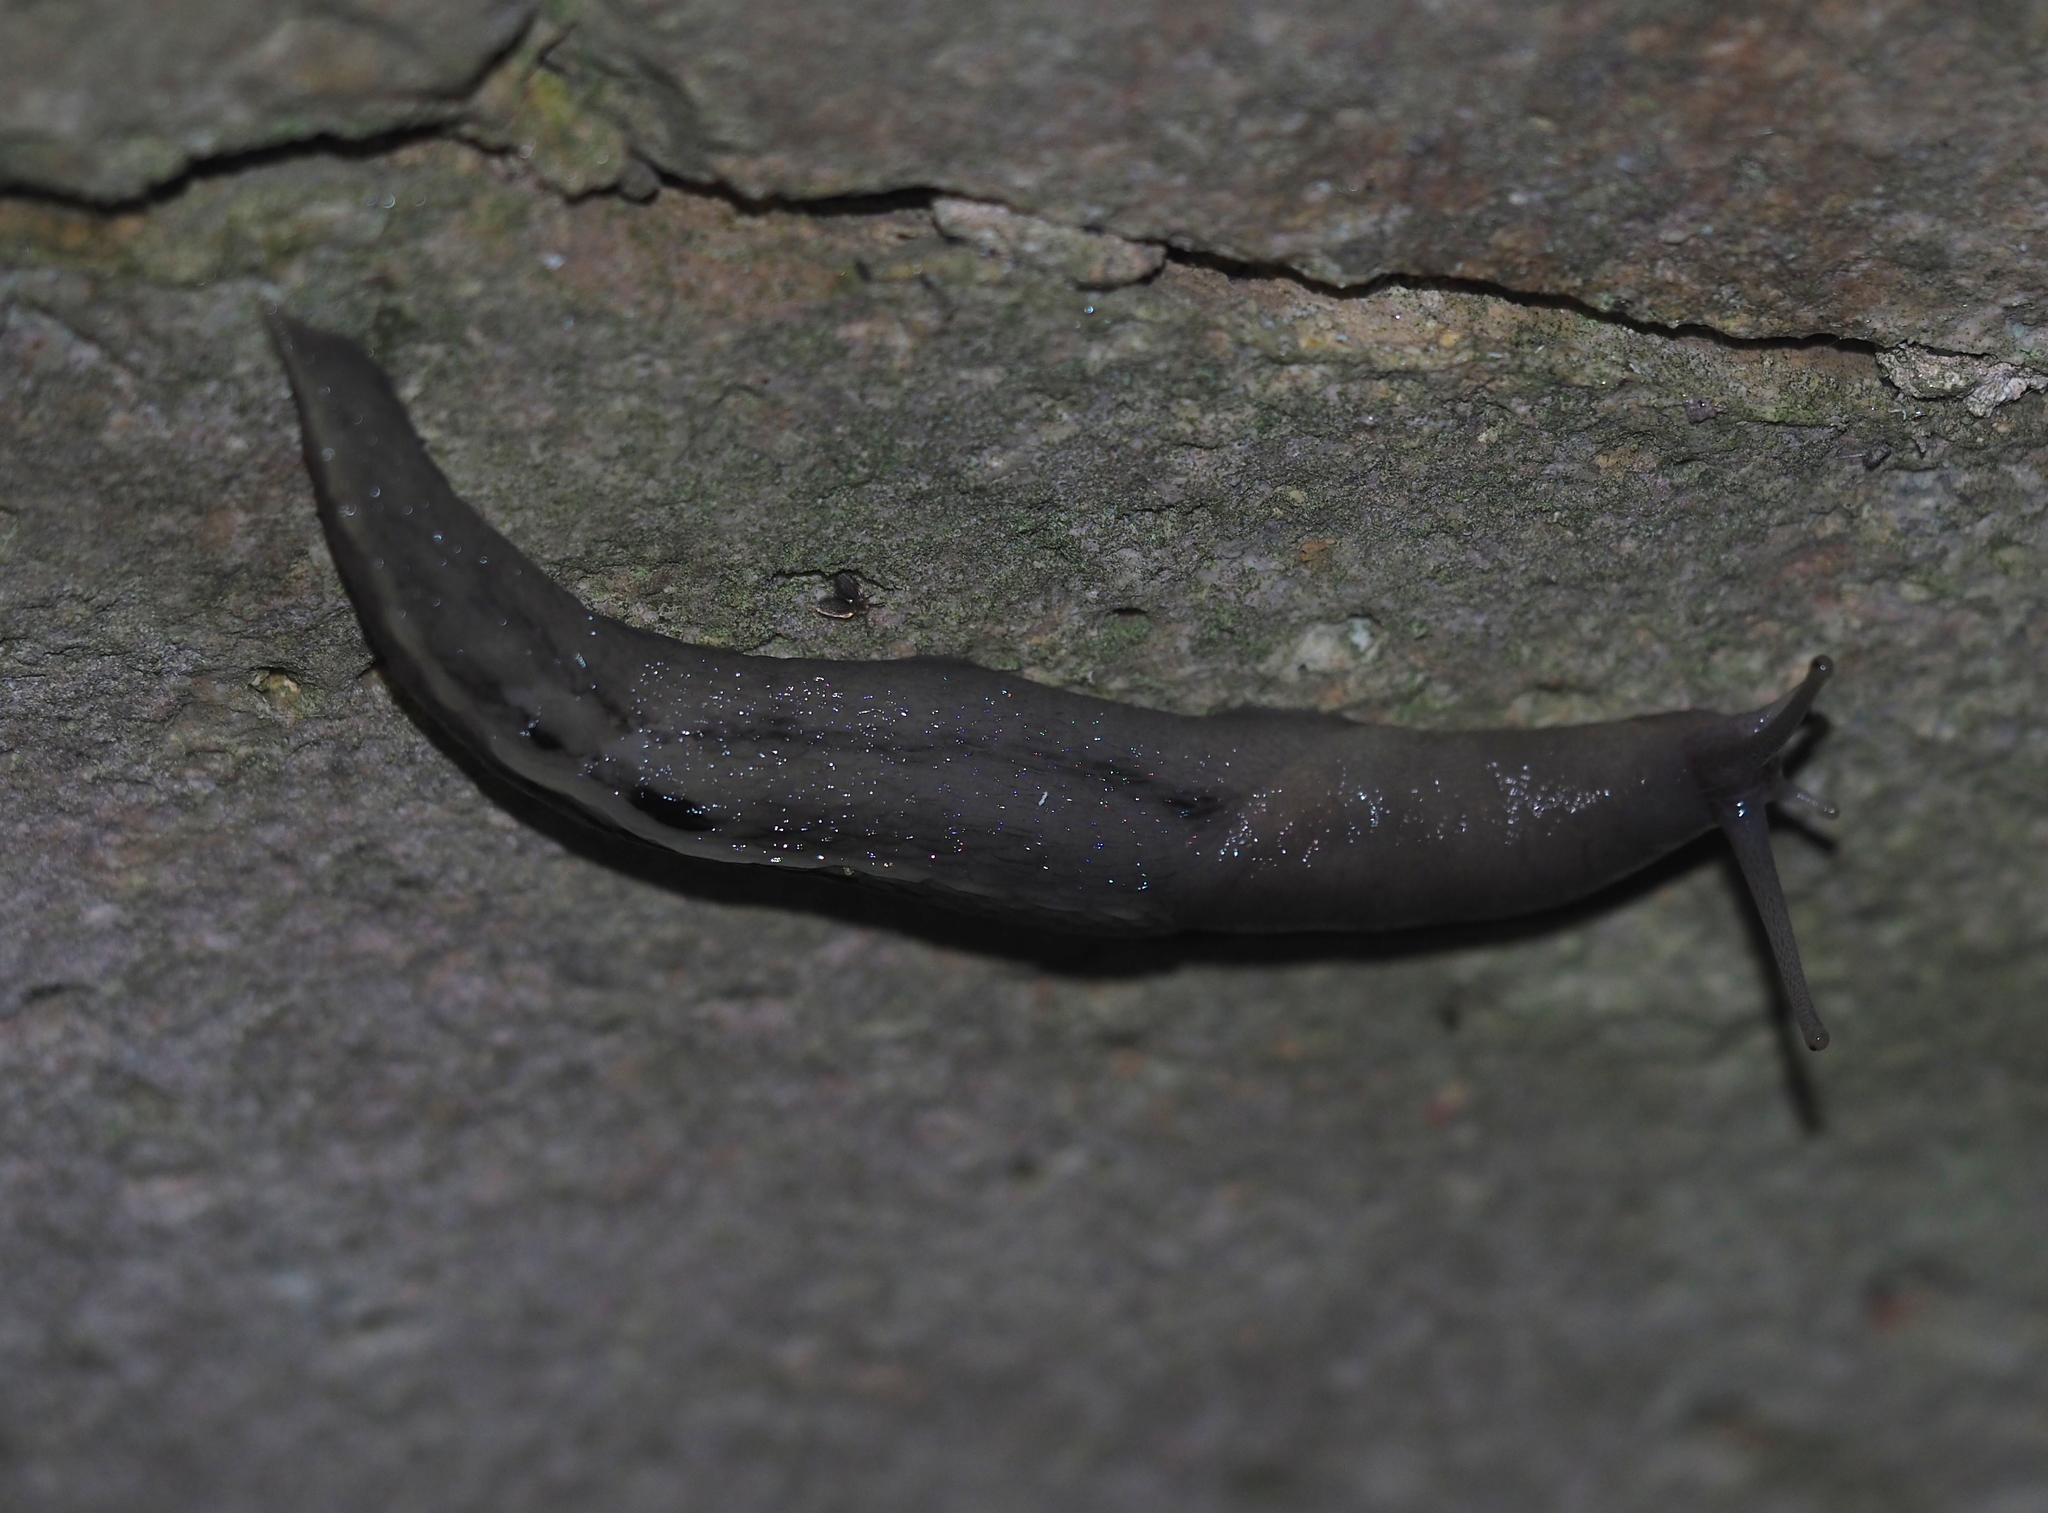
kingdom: Animalia
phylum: Mollusca
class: Gastropoda
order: Stylommatophora
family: Limacidae
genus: Limax
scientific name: Limax cinereoniger
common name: Ash-black slug
